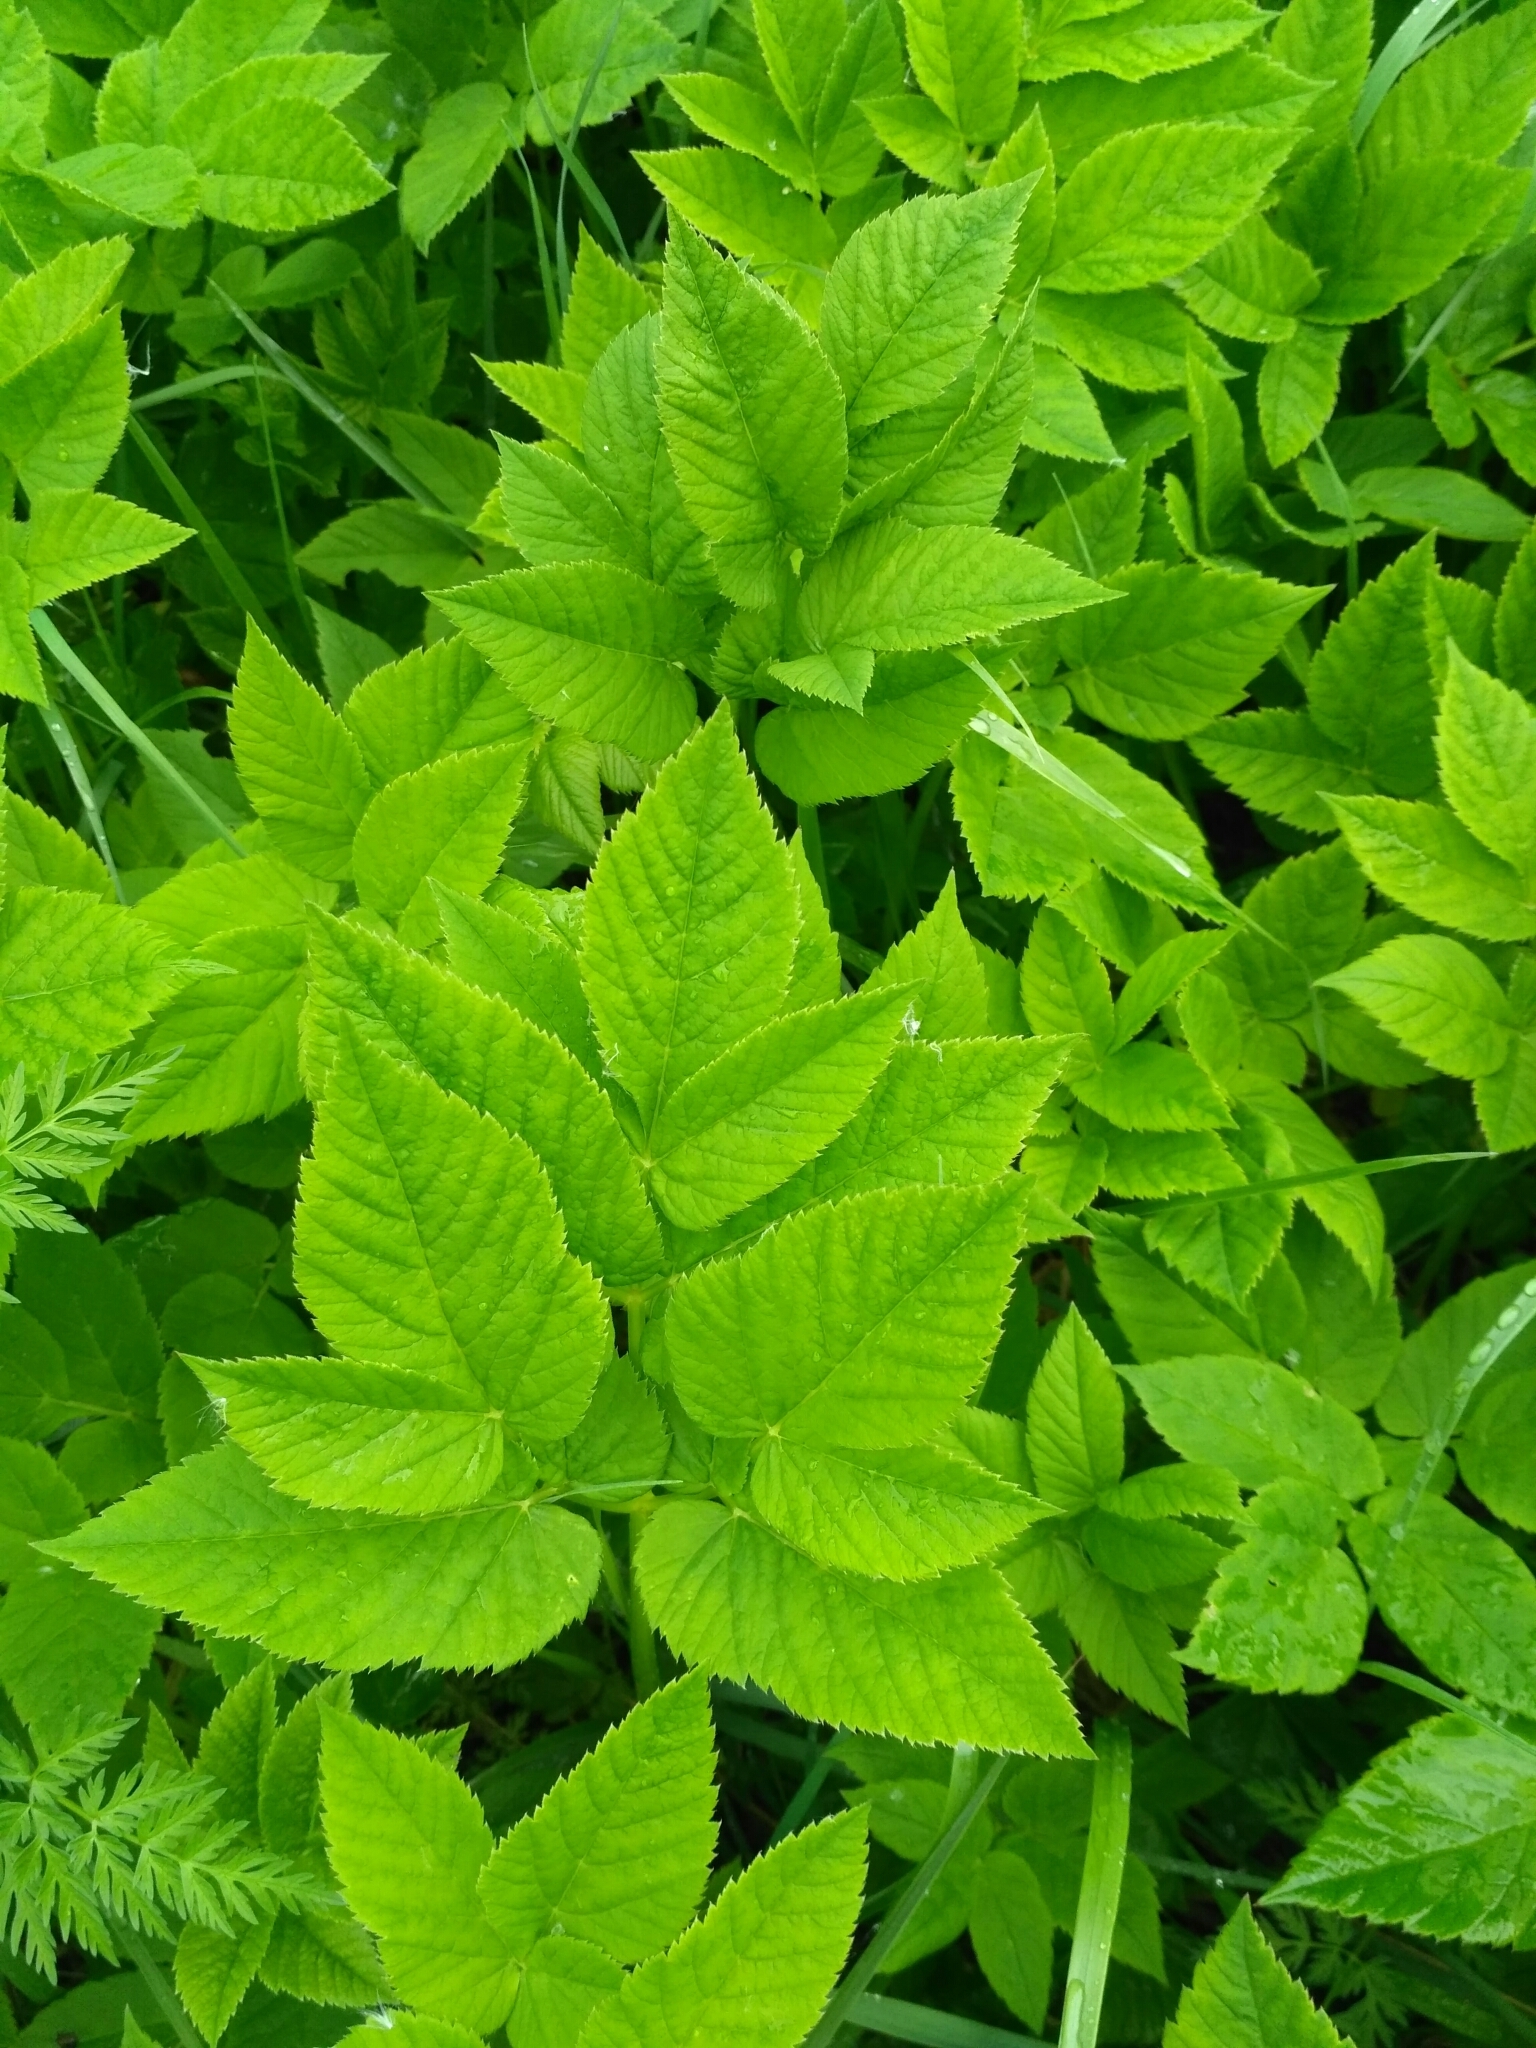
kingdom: Plantae
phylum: Tracheophyta
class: Magnoliopsida
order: Apiales
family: Apiaceae
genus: Aegopodium
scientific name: Aegopodium podagraria
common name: Ground-elder
